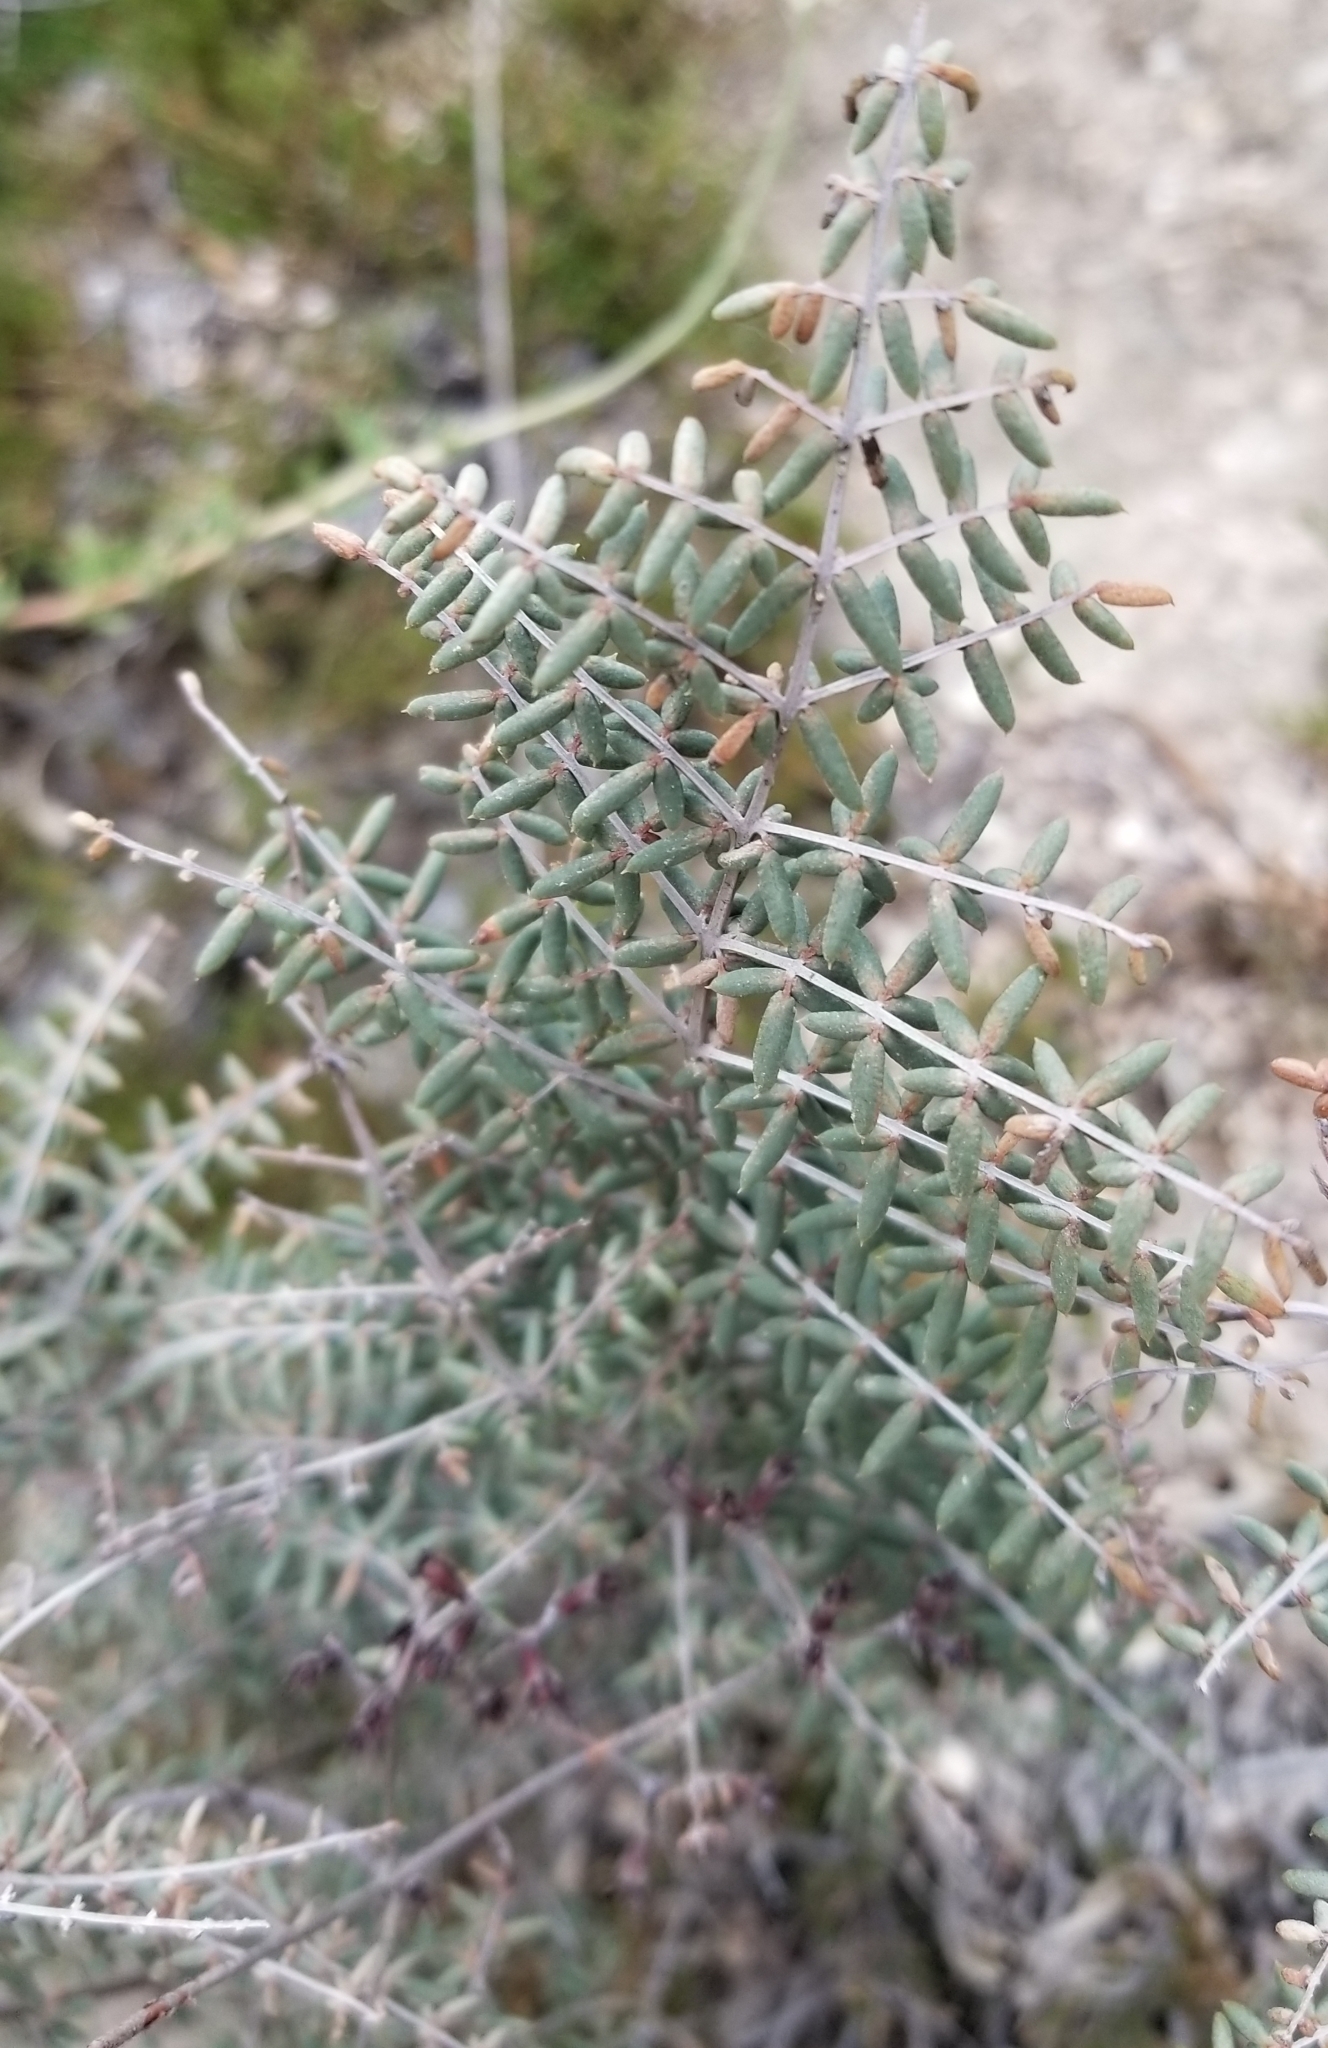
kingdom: Plantae
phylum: Tracheophyta
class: Polypodiopsida
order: Polypodiales
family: Pteridaceae
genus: Pellaea
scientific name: Pellaea mucronata
